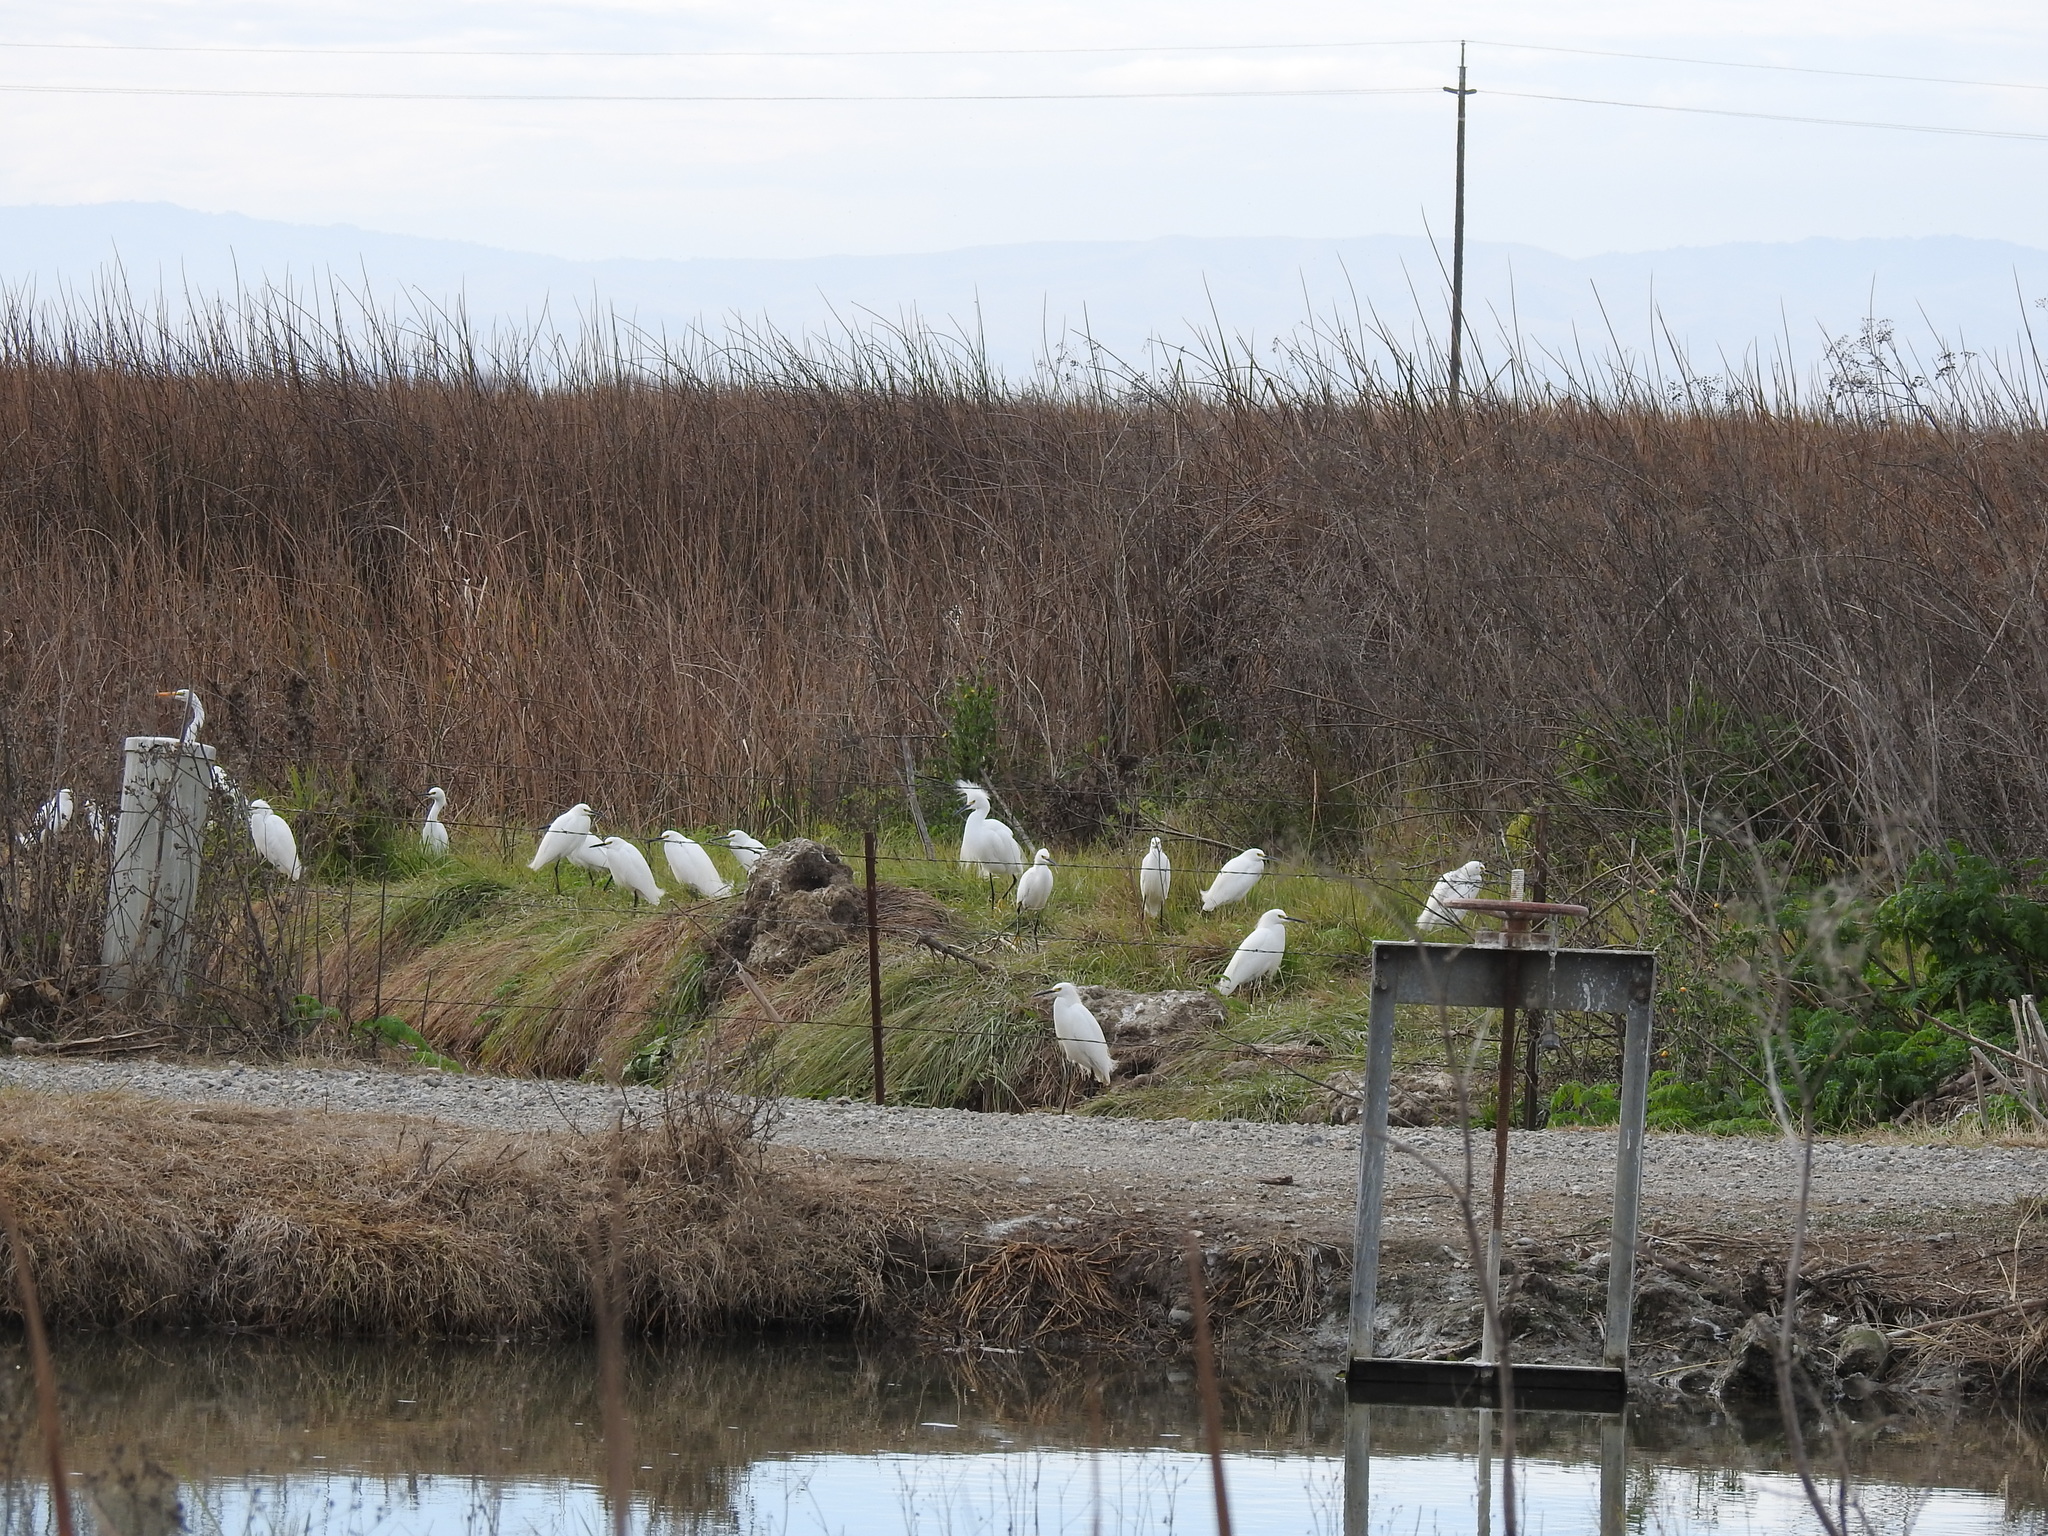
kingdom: Animalia
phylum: Chordata
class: Aves
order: Pelecaniformes
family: Ardeidae
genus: Egretta
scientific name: Egretta thula
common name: Snowy egret
